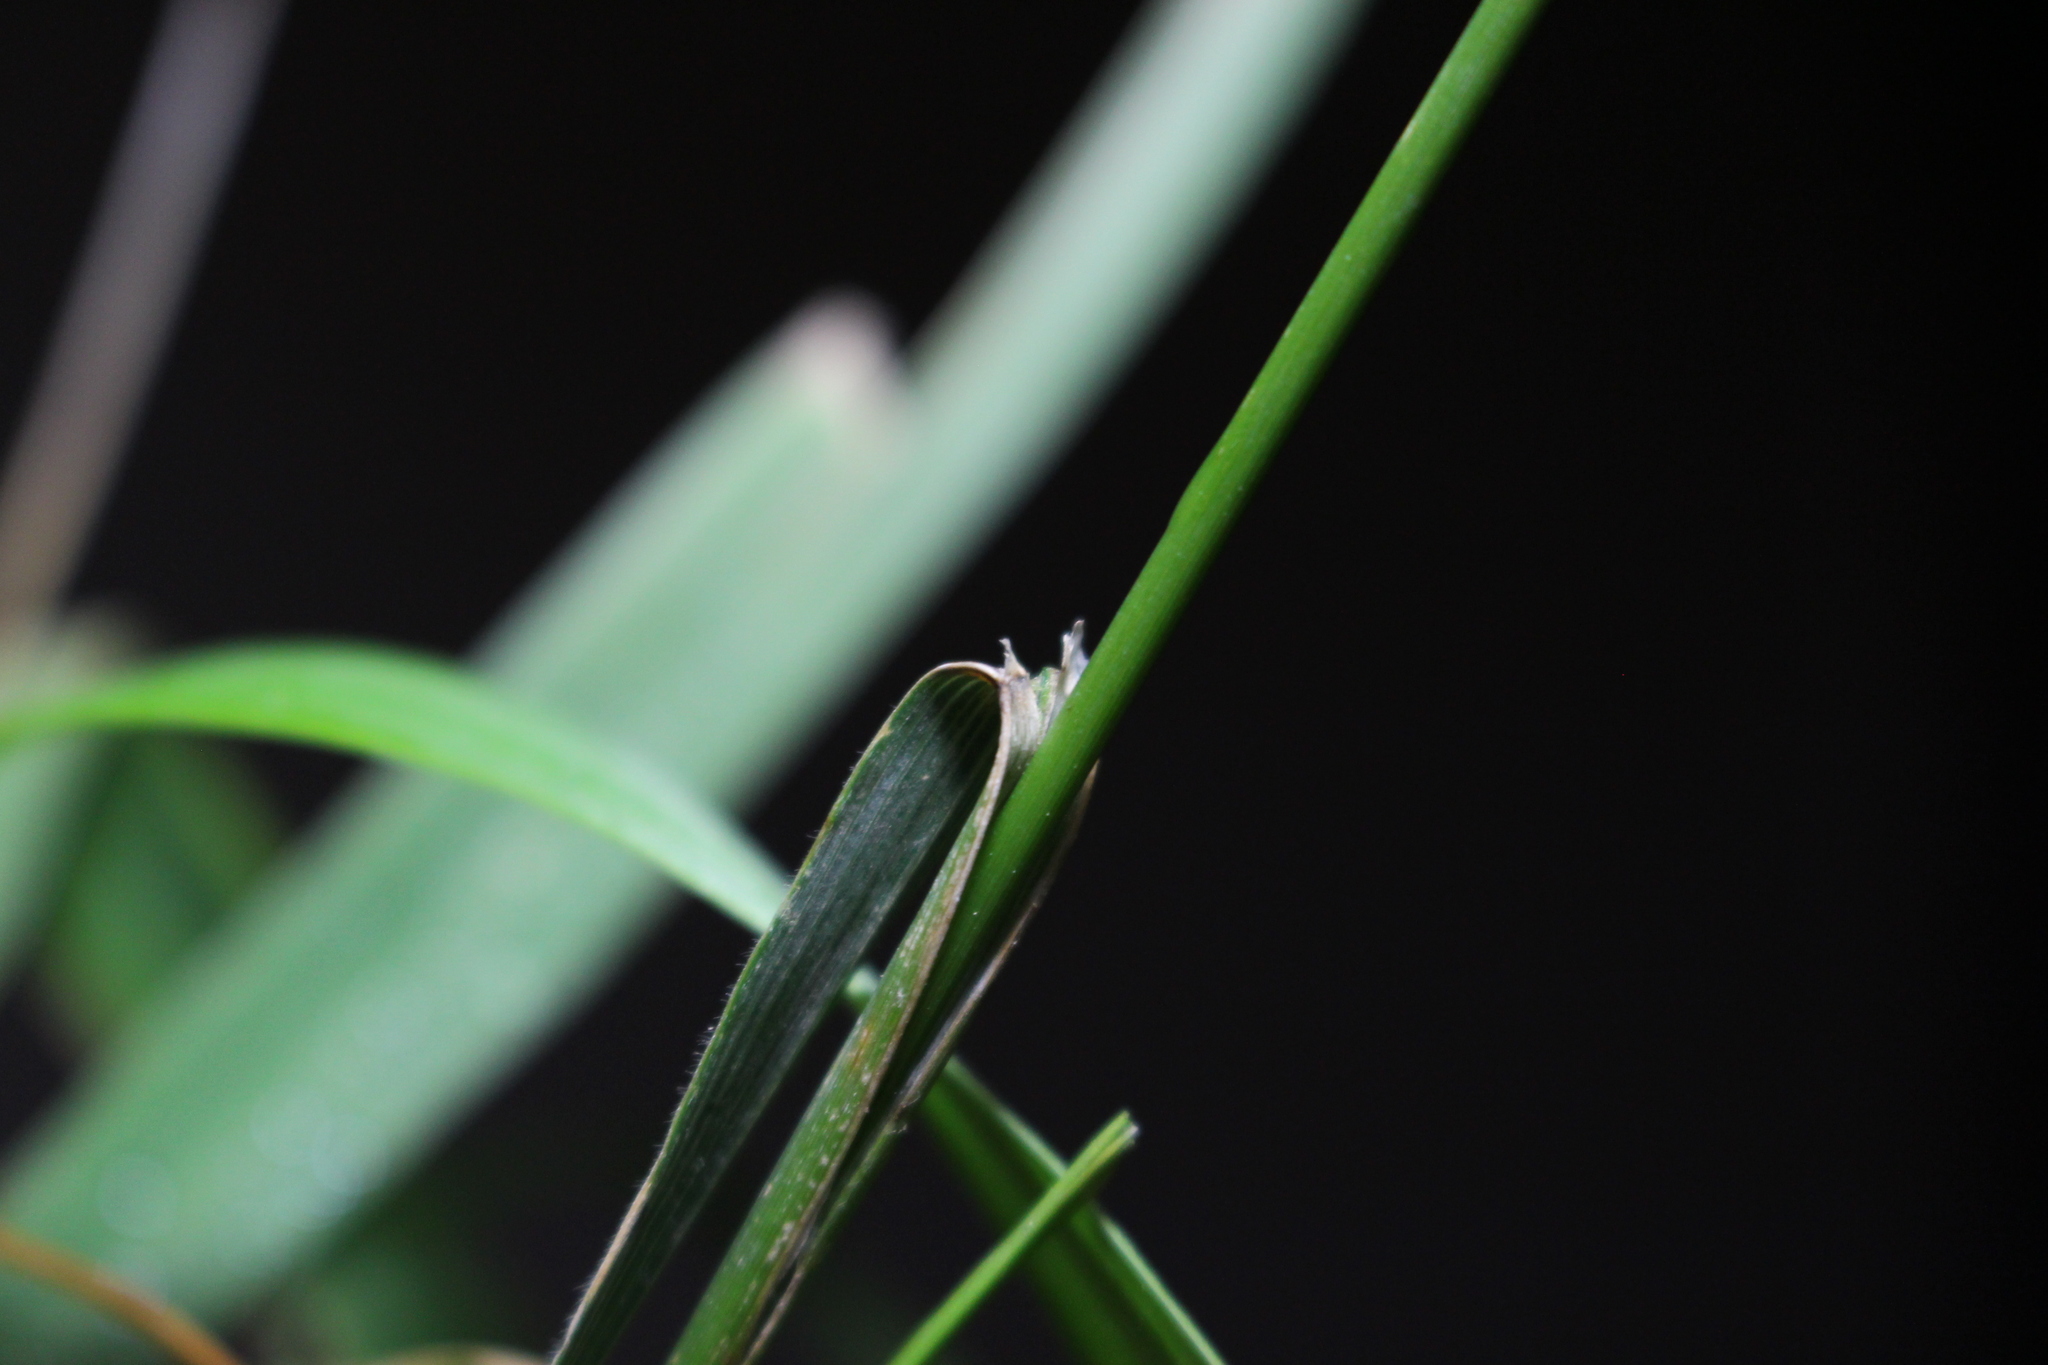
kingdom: Plantae
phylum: Tracheophyta
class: Liliopsida
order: Poales
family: Poaceae
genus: Bromus
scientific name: Bromus cebadilla
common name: Southern brome
